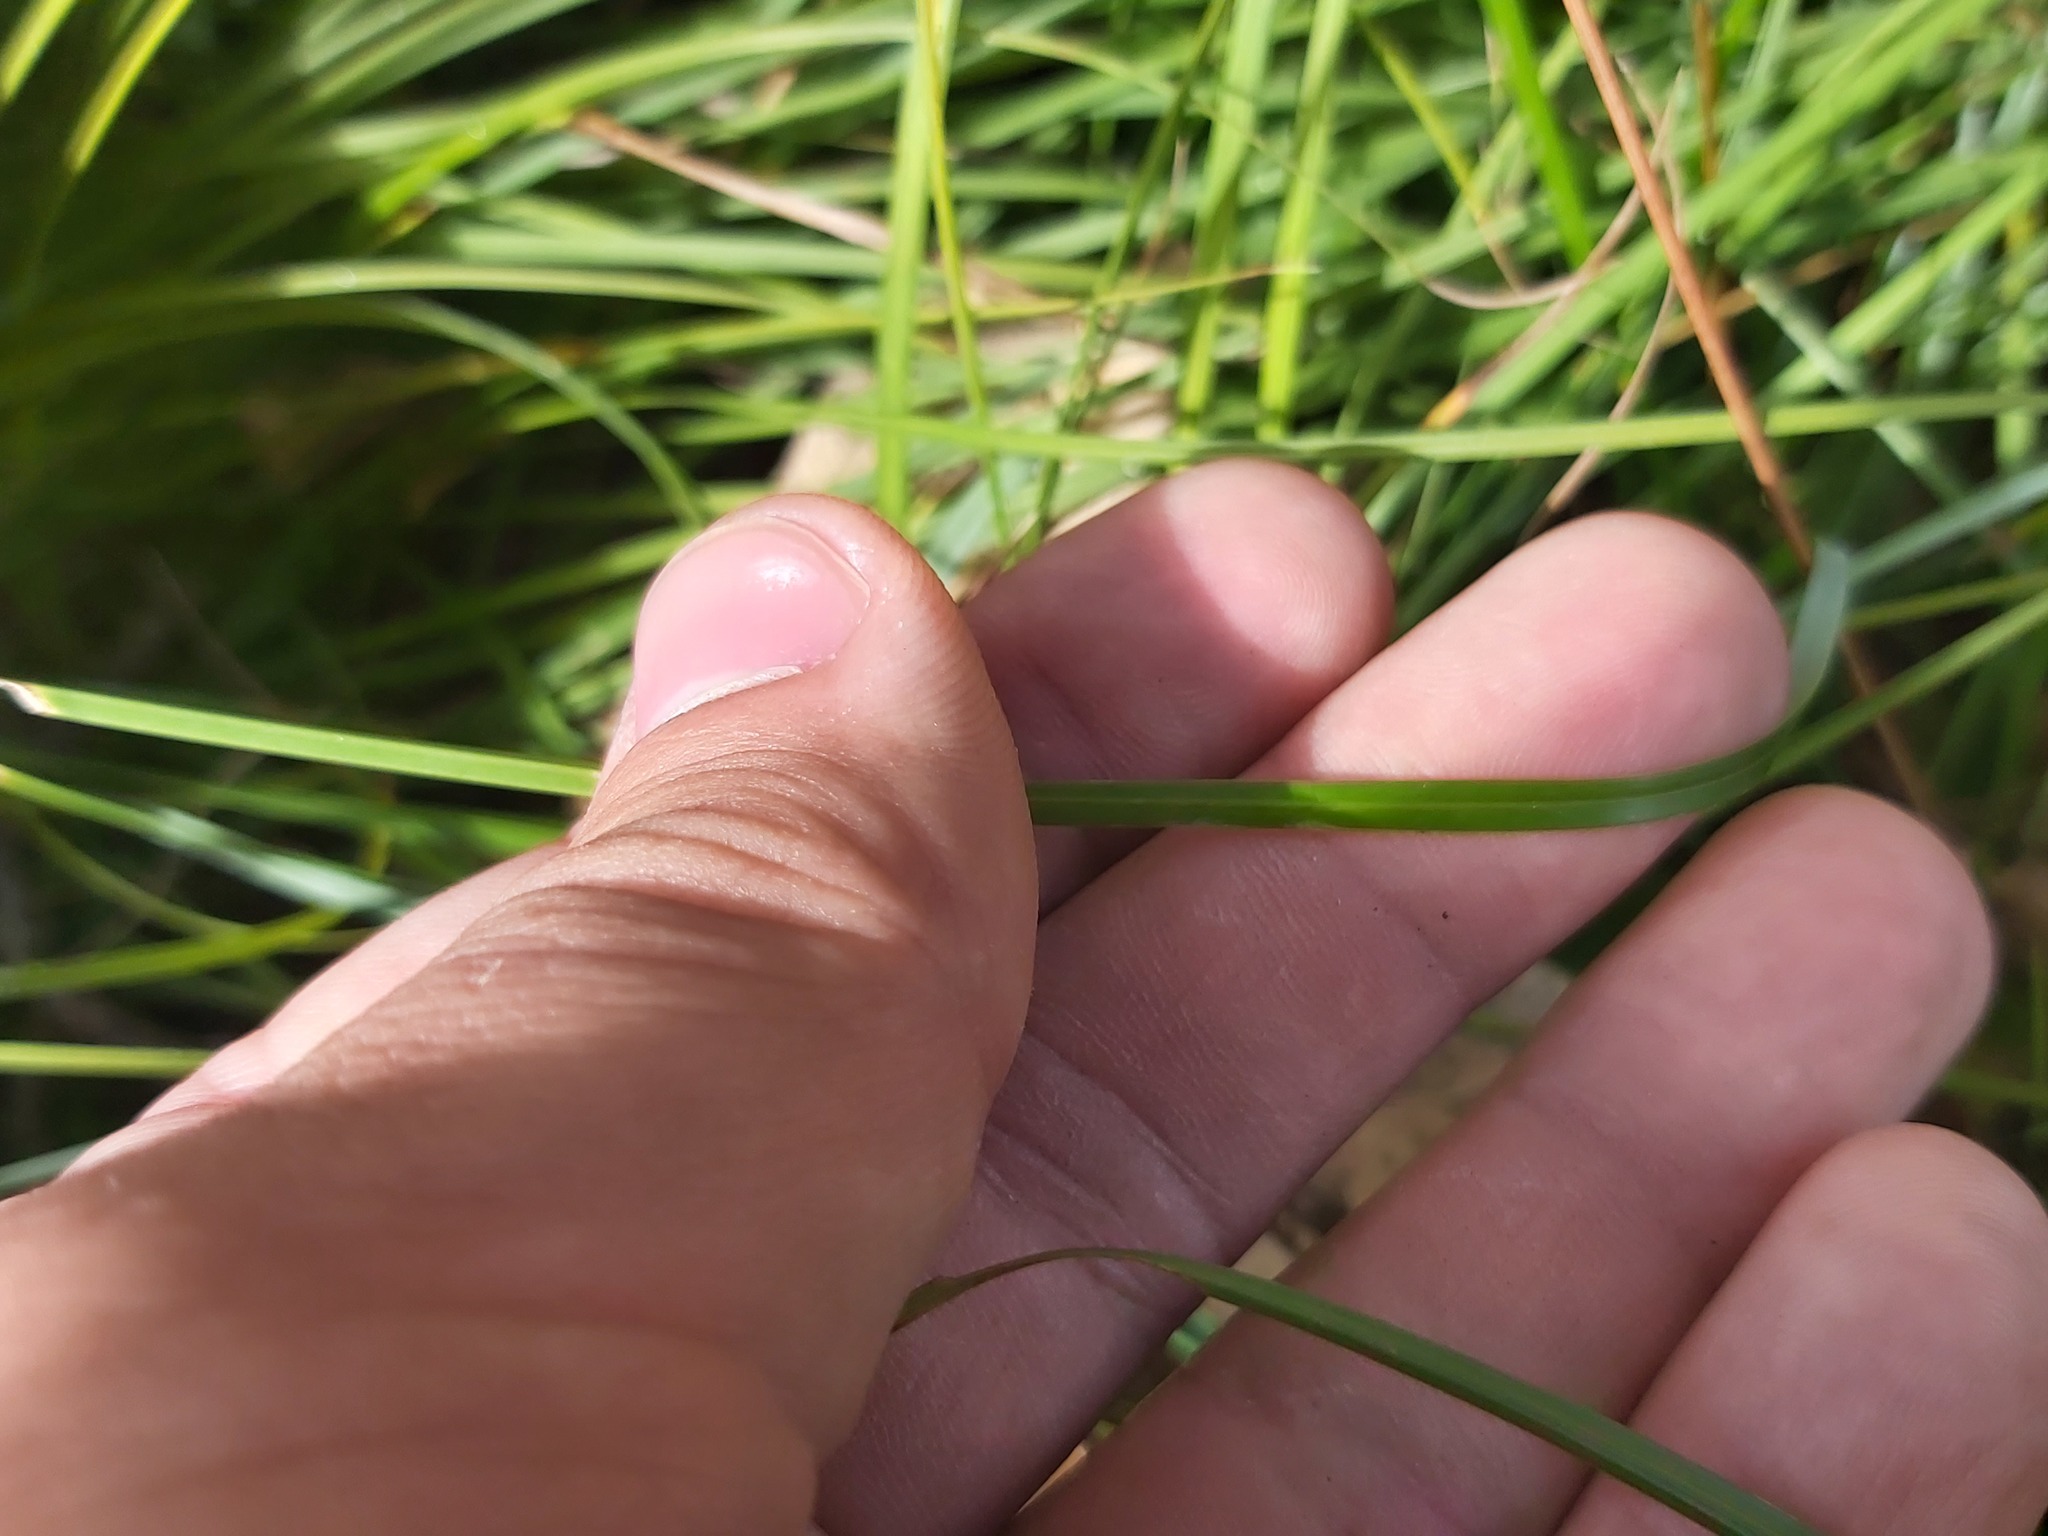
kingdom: Plantae
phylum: Tracheophyta
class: Liliopsida
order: Poales
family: Poaceae
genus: Sesleria
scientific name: Sesleria caerulea
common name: Blue moor-grass
